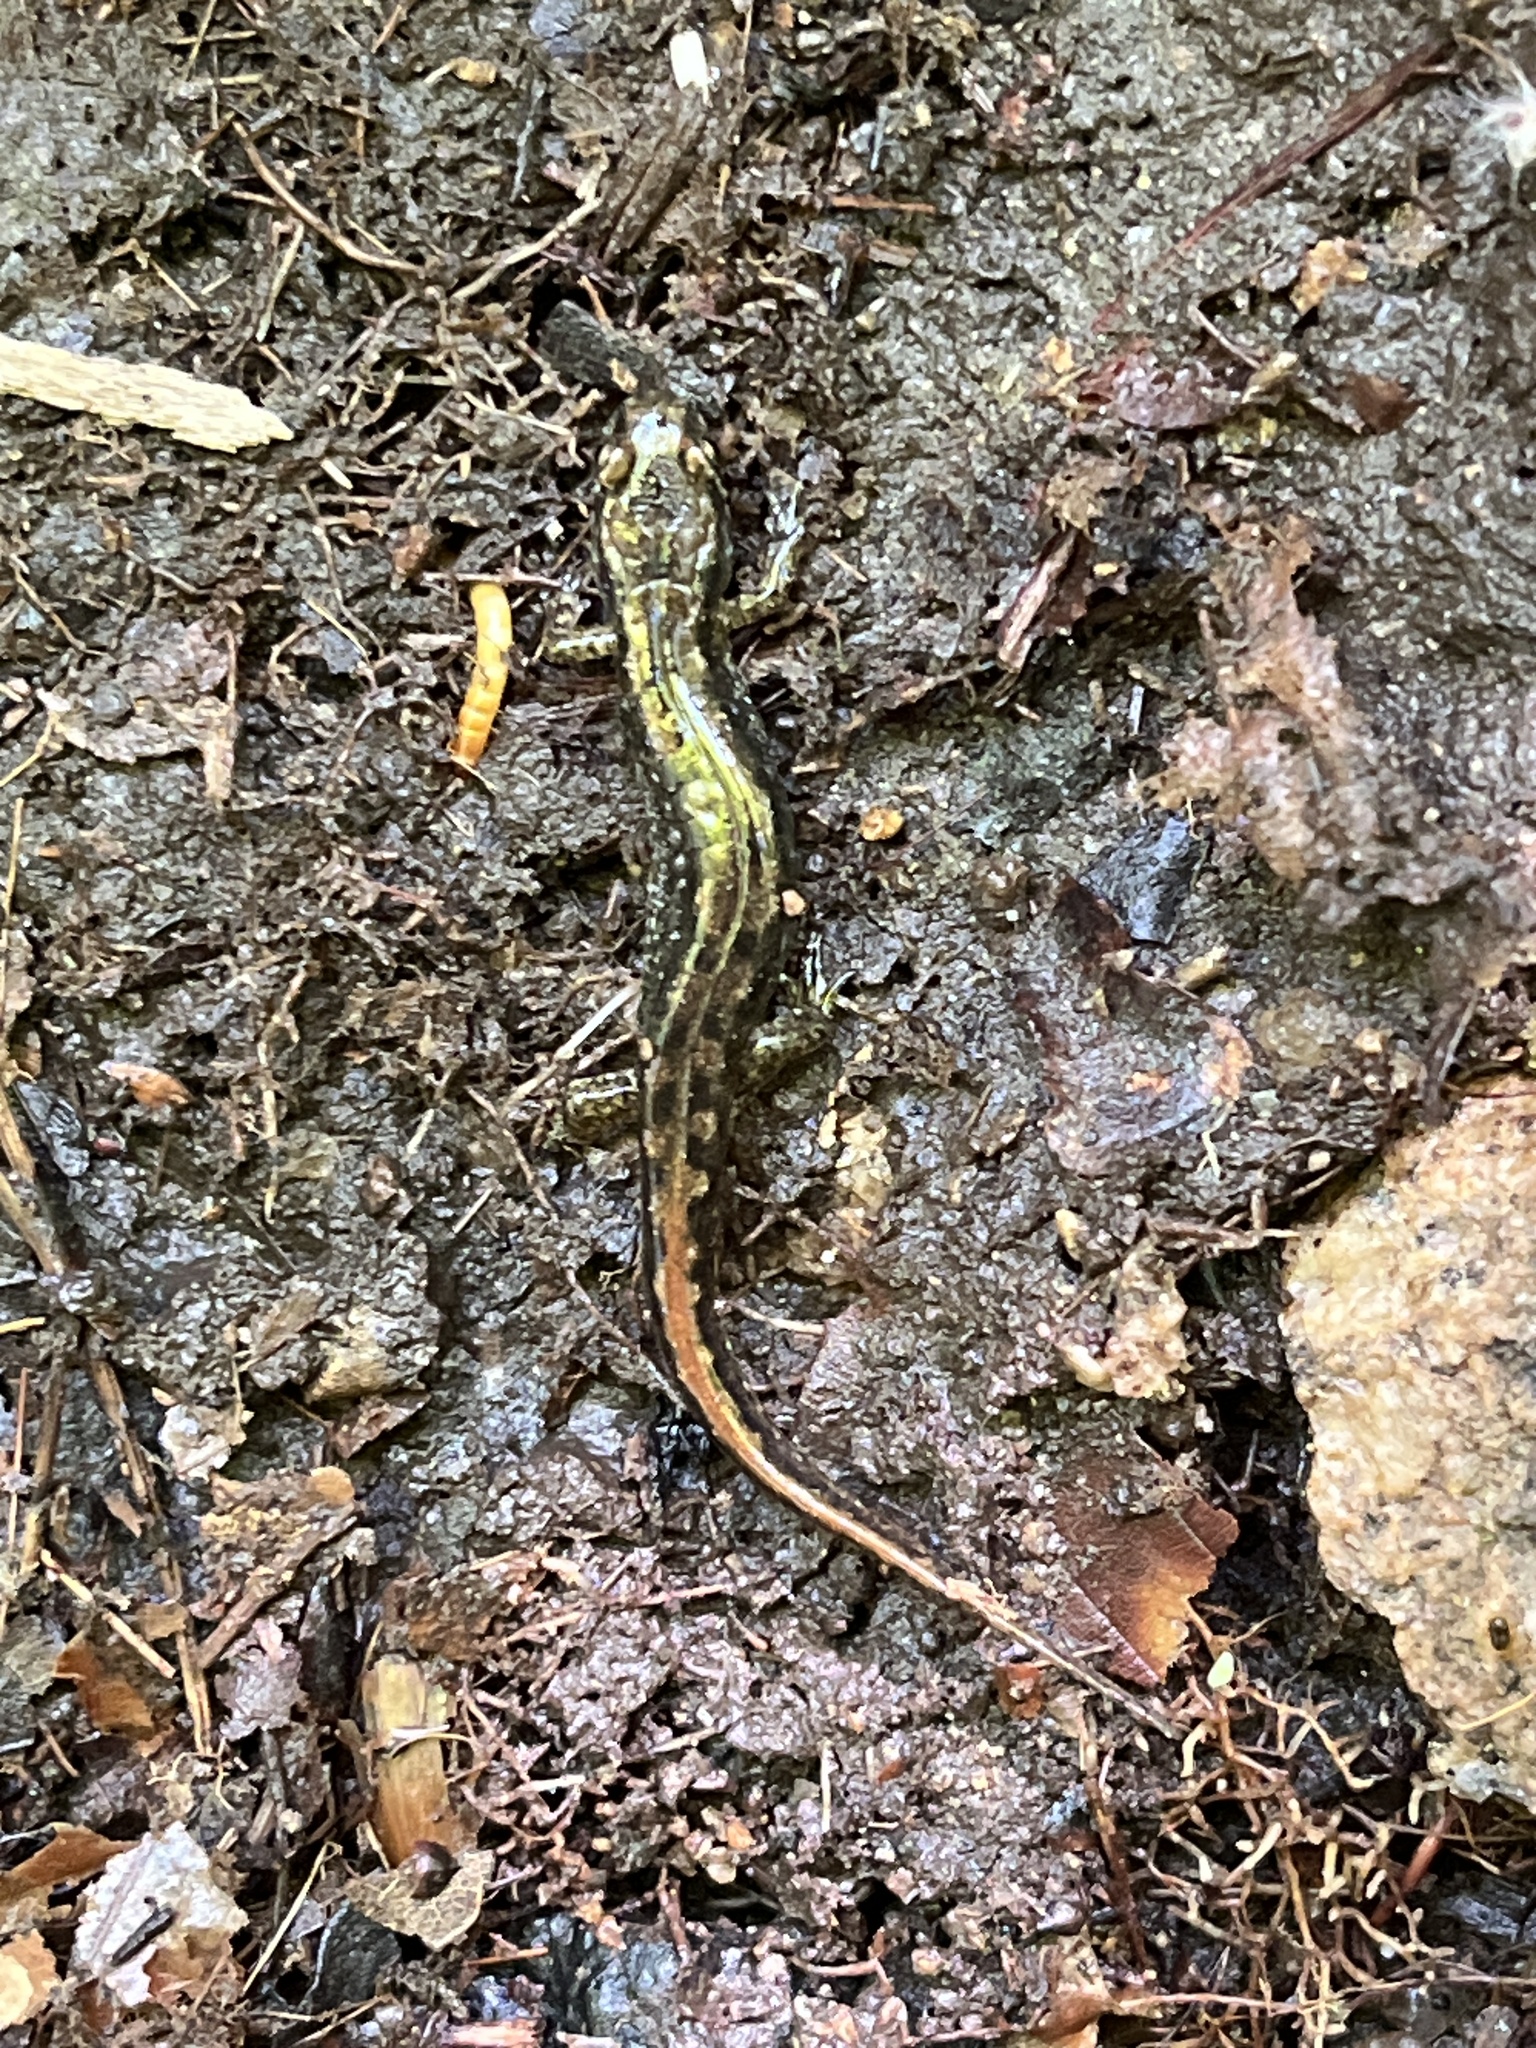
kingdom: Animalia
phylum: Chordata
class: Amphibia
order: Caudata
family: Plethodontidae
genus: Desmognathus
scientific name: Desmognathus fuscus
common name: Northern dusky salamander
